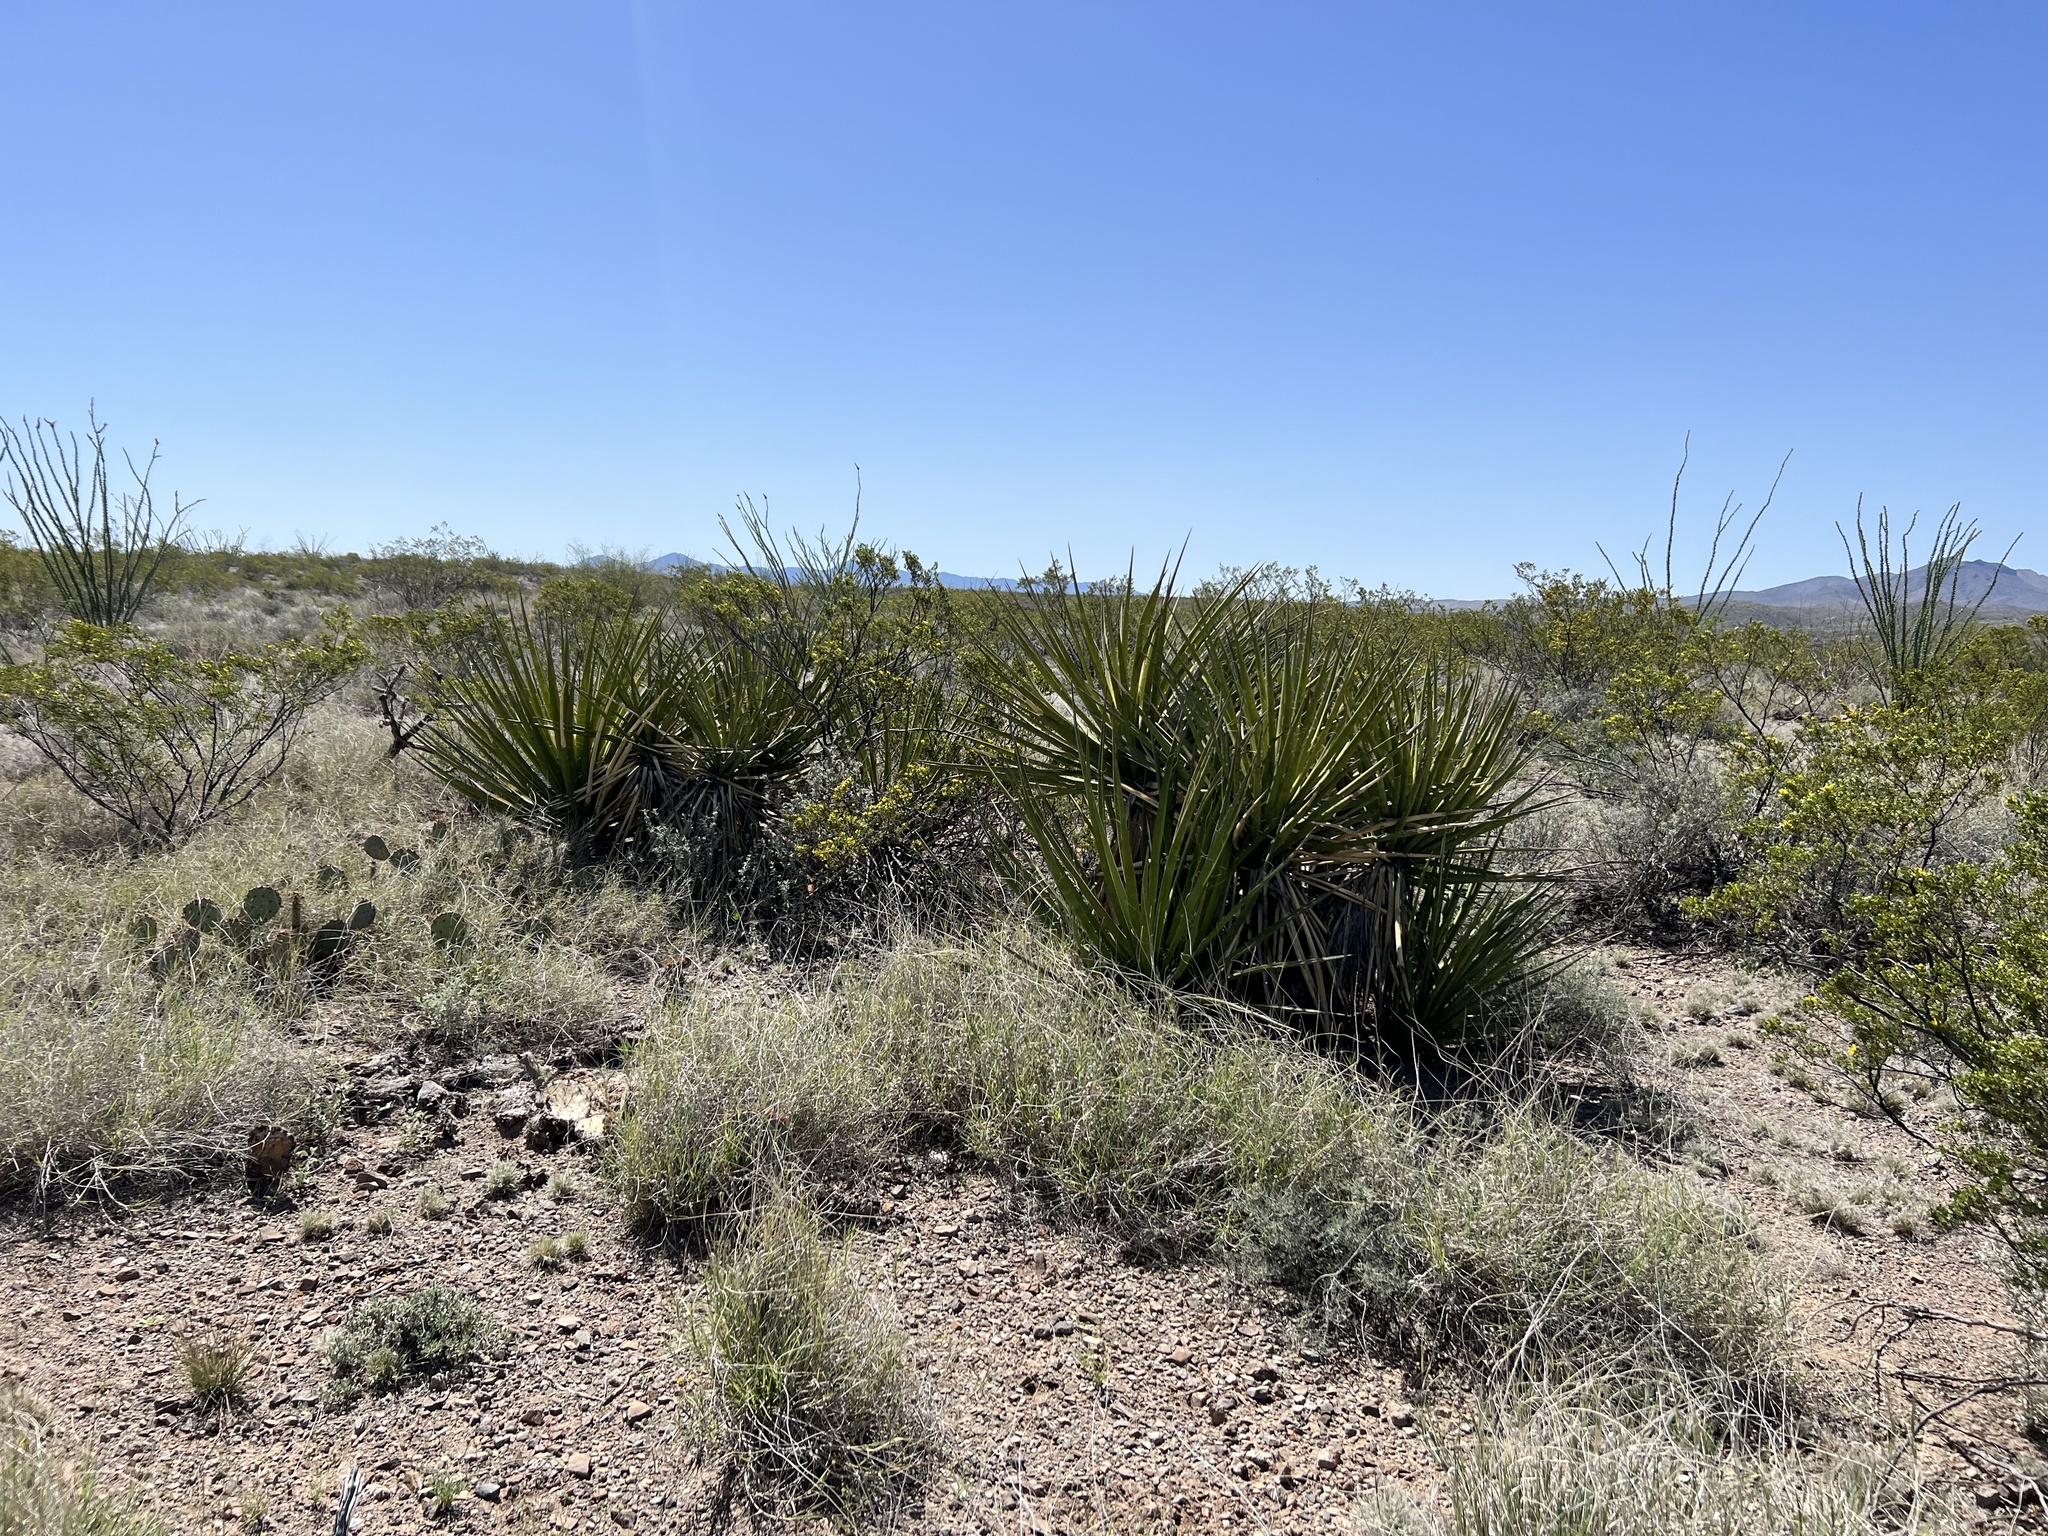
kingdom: Plantae
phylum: Tracheophyta
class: Liliopsida
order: Asparagales
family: Asparagaceae
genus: Yucca
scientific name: Yucca baccata
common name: Banana yucca
